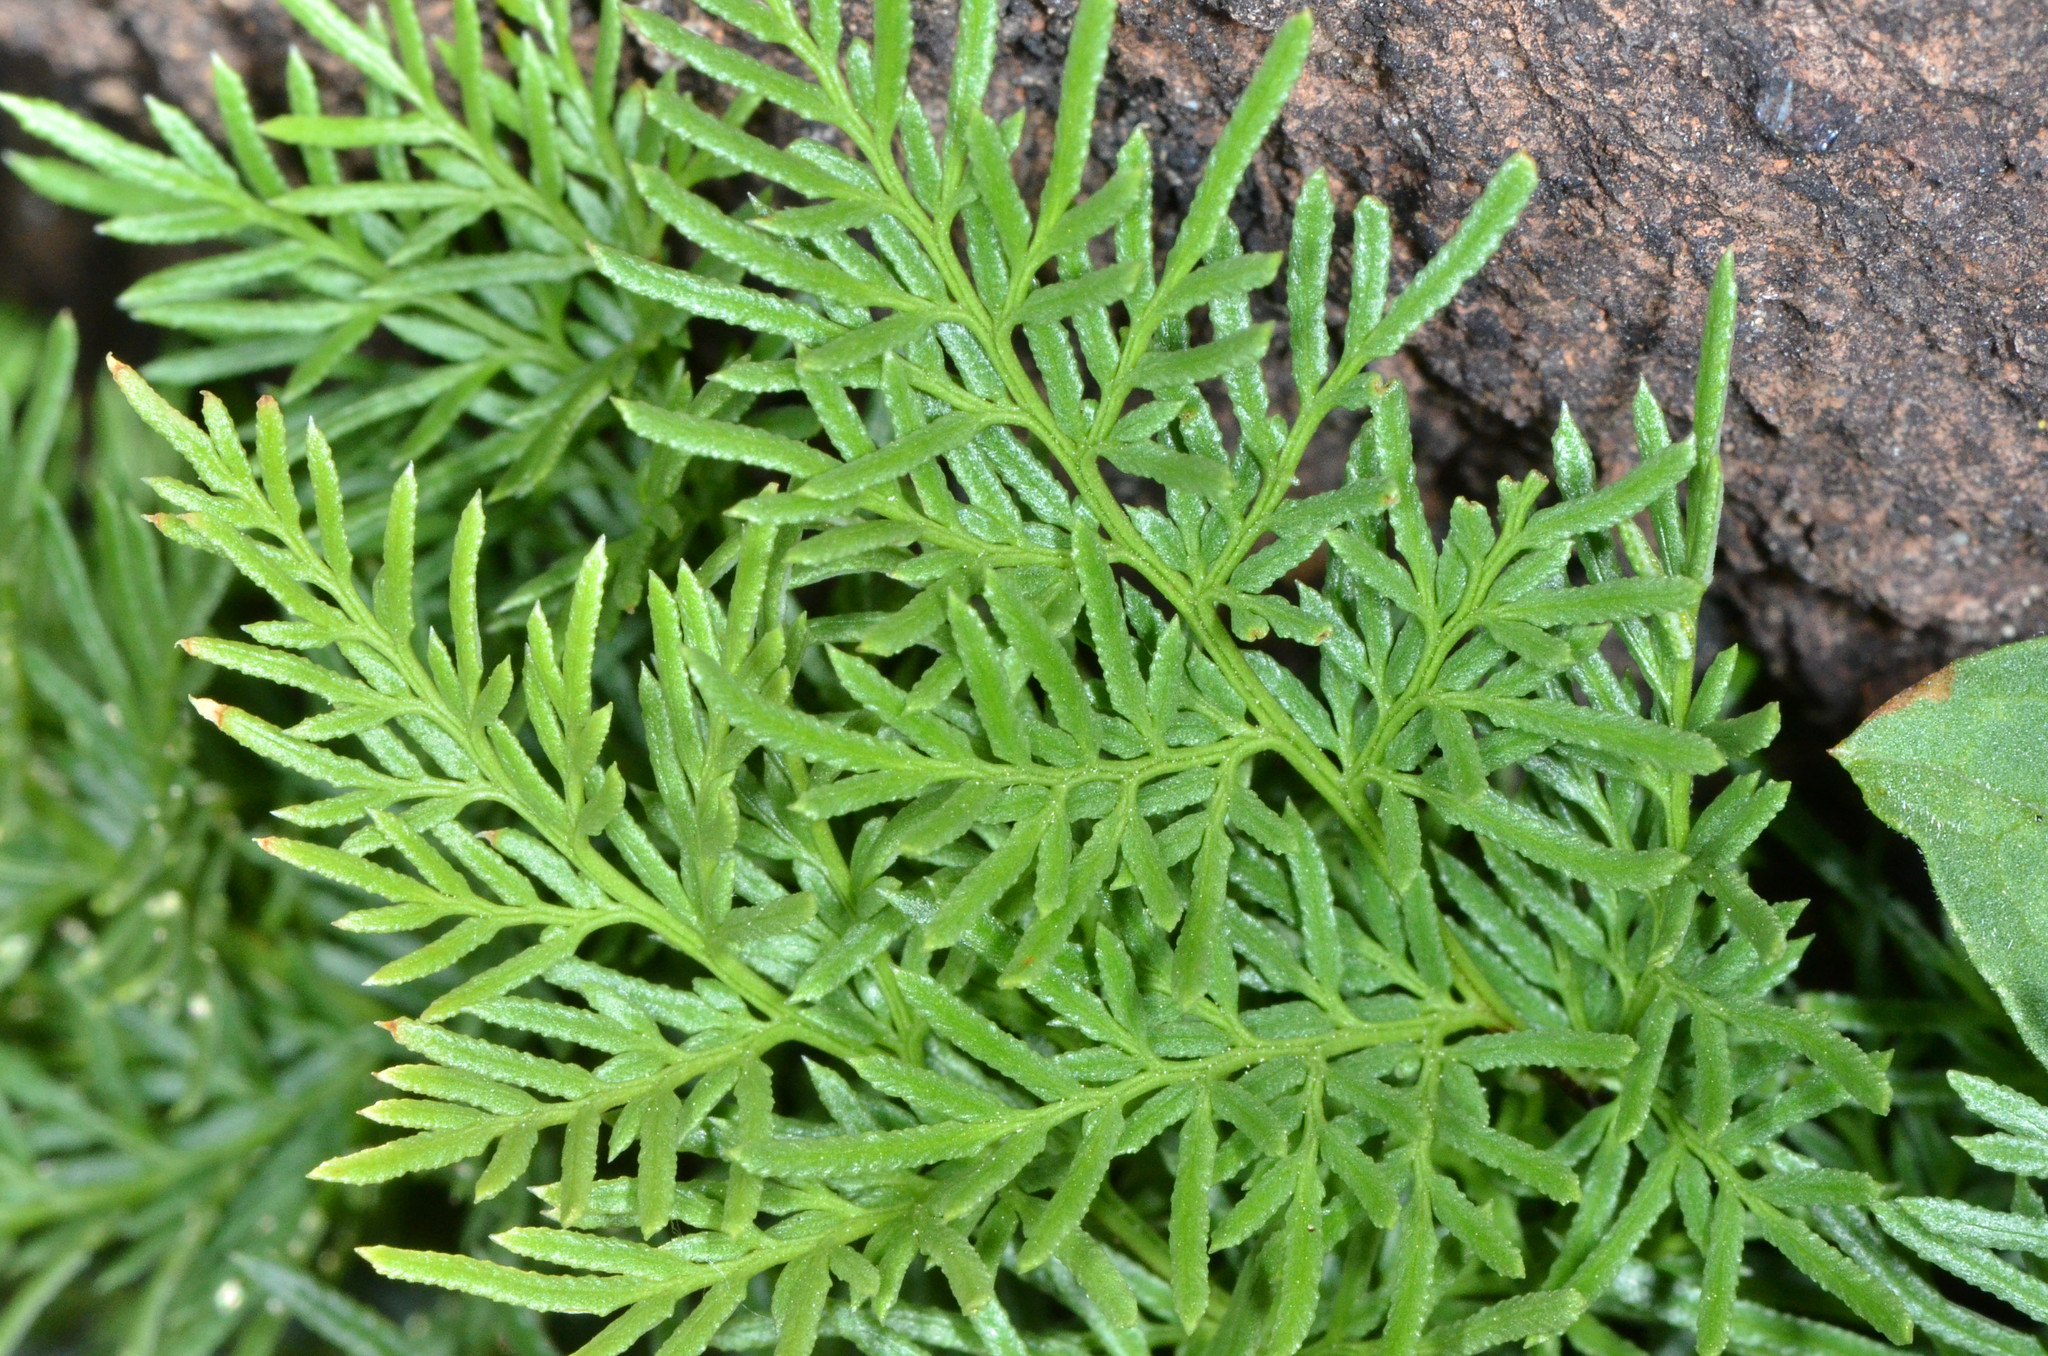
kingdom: Plantae
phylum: Tracheophyta
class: Polypodiopsida
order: Polypodiales
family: Pteridaceae
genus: Aspidotis
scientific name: Aspidotis densa
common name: Indian's dream
